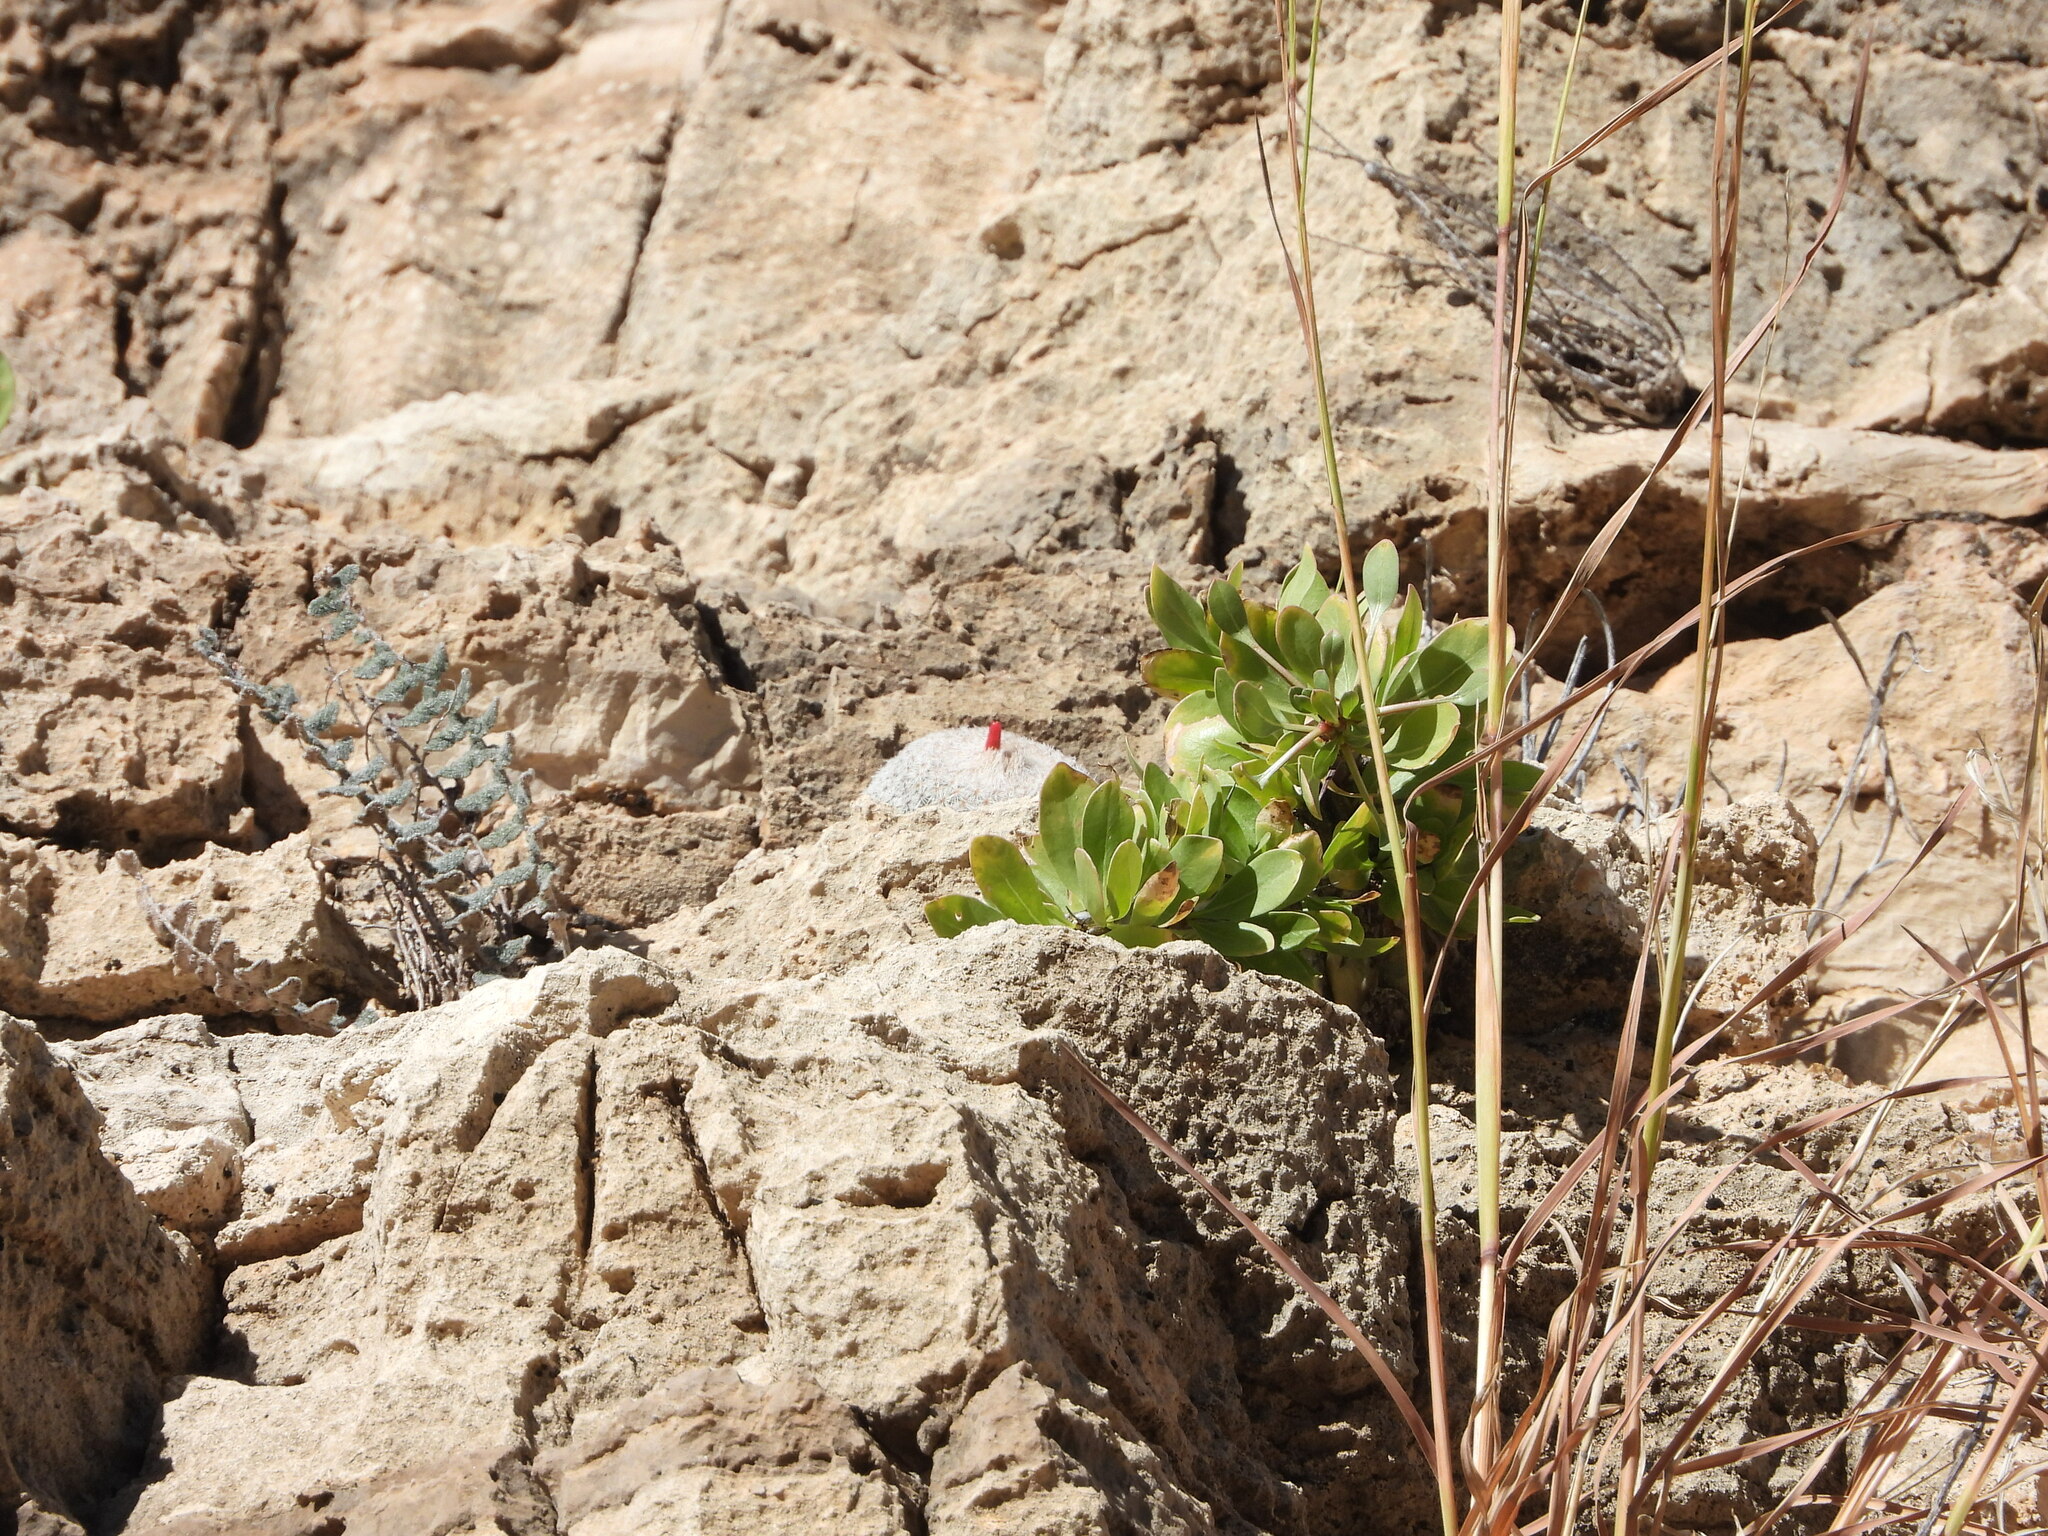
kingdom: Plantae
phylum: Tracheophyta
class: Magnoliopsida
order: Caryophyllales
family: Cactaceae
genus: Epithelantha
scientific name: Epithelantha micromeris
